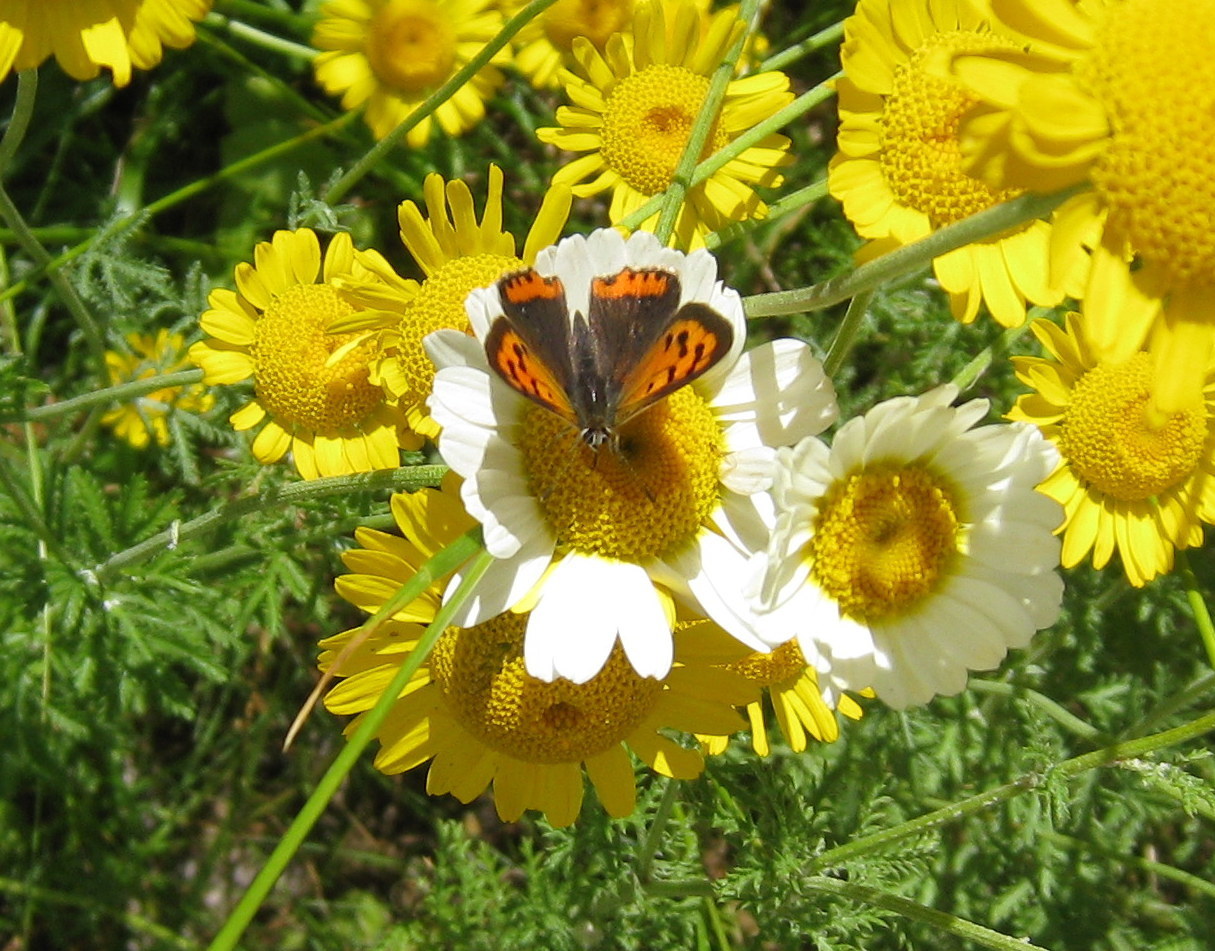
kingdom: Animalia
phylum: Arthropoda
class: Insecta
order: Lepidoptera
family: Lycaenidae
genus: Lycaena
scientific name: Lycaena phlaeas
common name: Small copper
